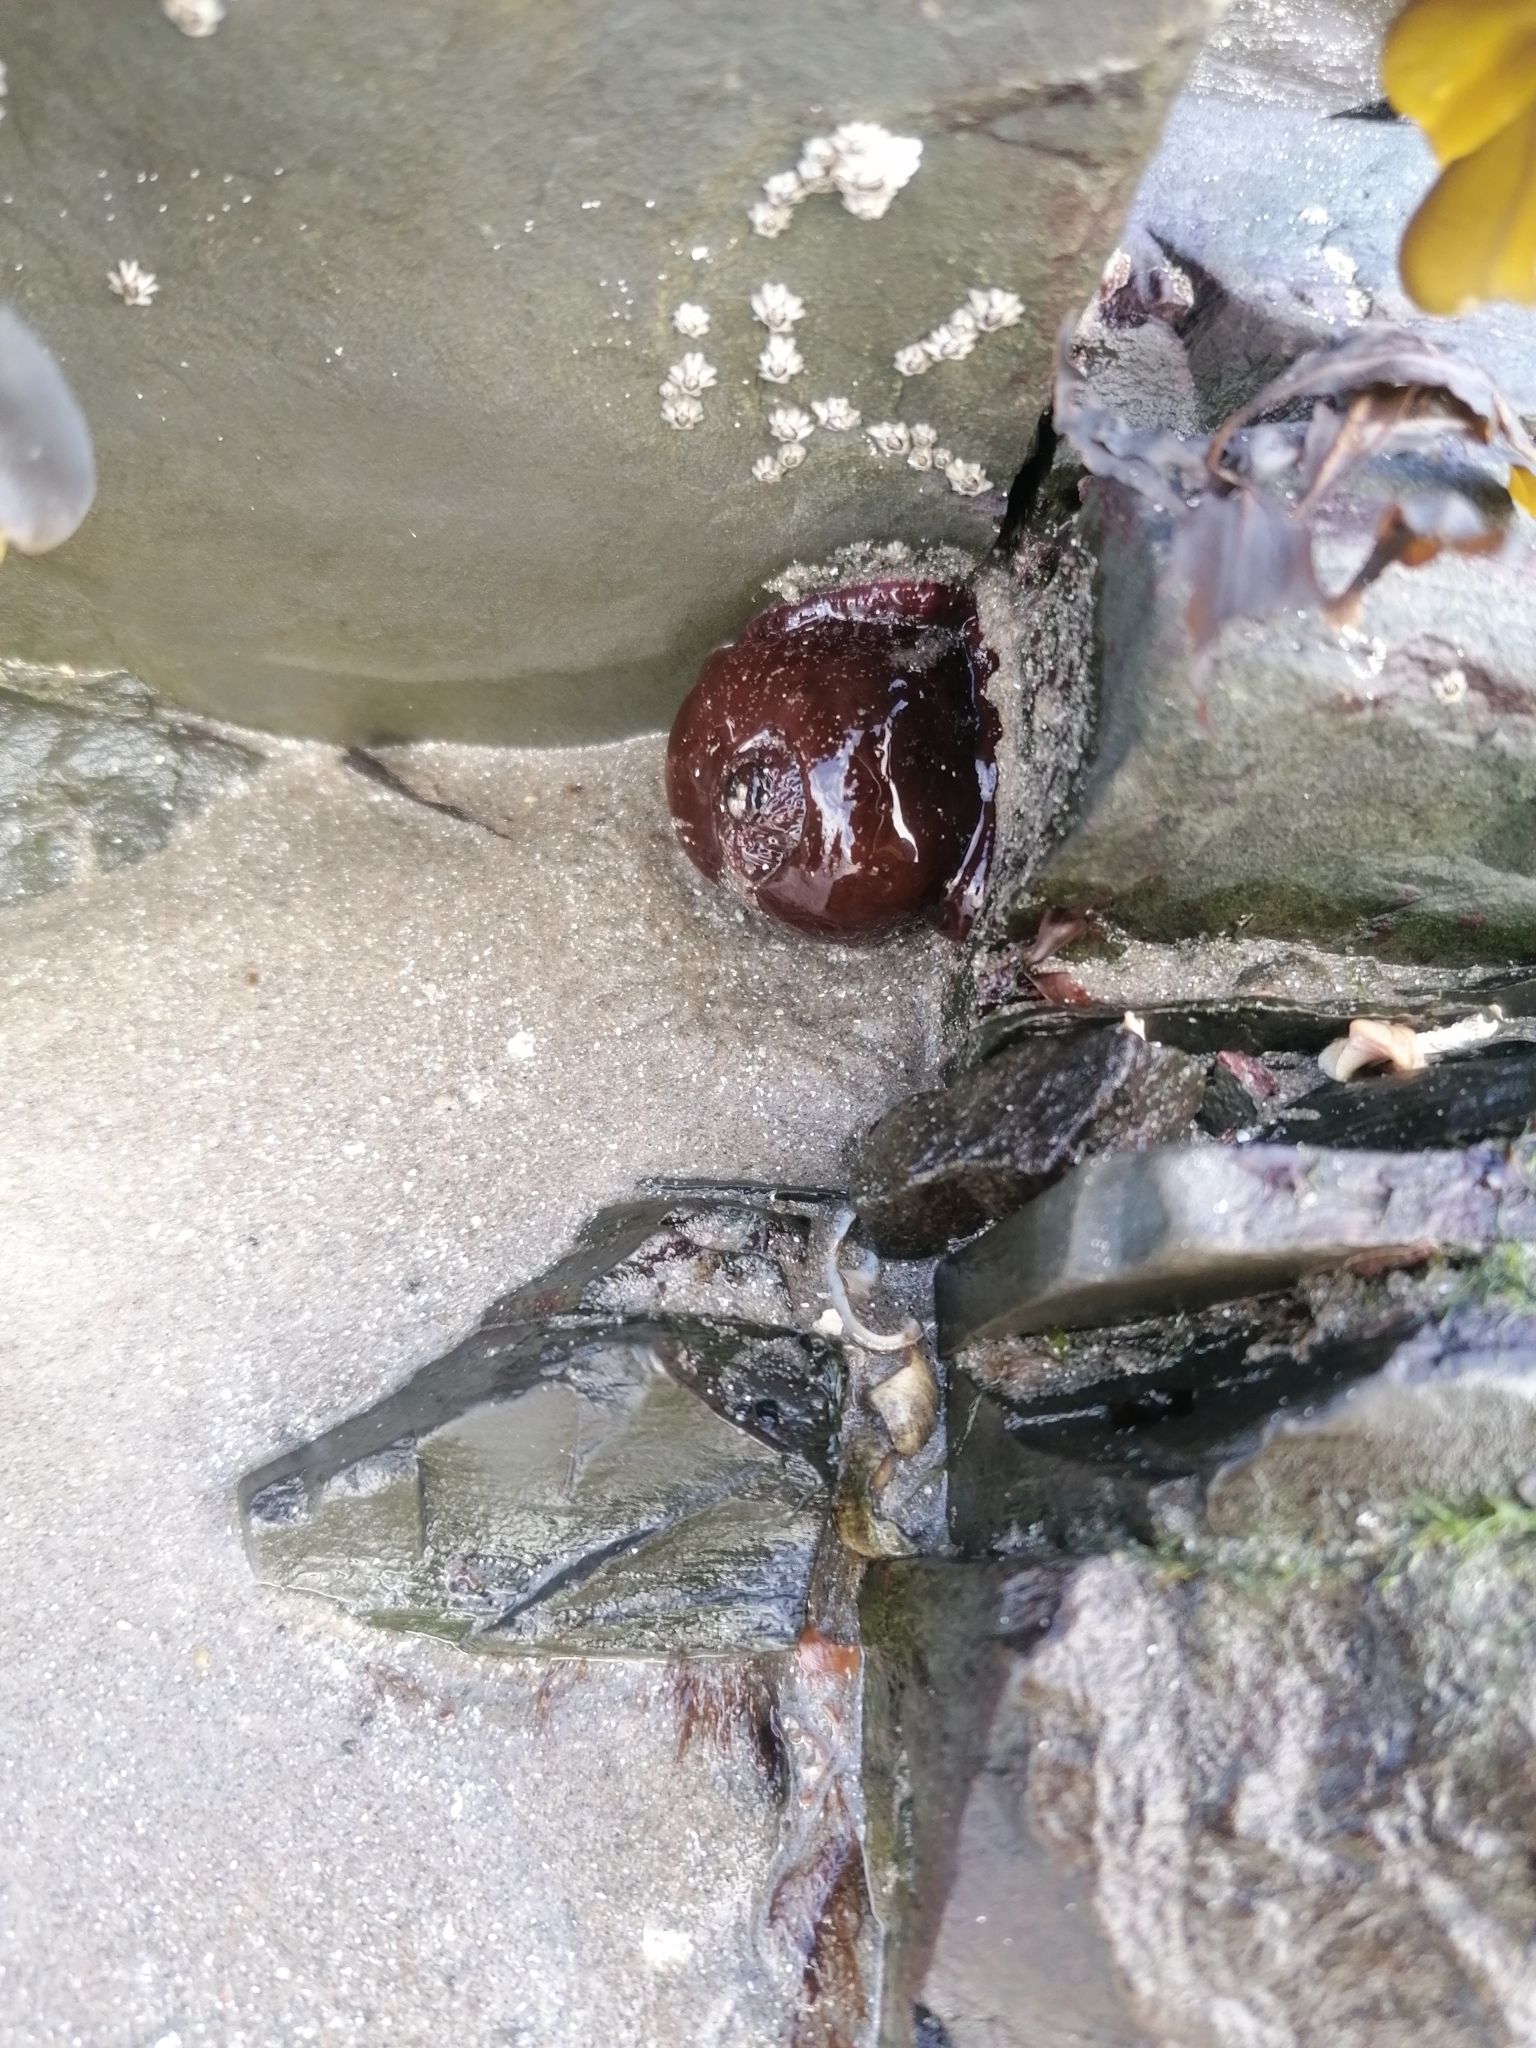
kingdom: Animalia
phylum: Cnidaria
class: Anthozoa
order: Actiniaria
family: Actiniidae
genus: Actinia
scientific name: Actinia equina
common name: Beadlet anemone
